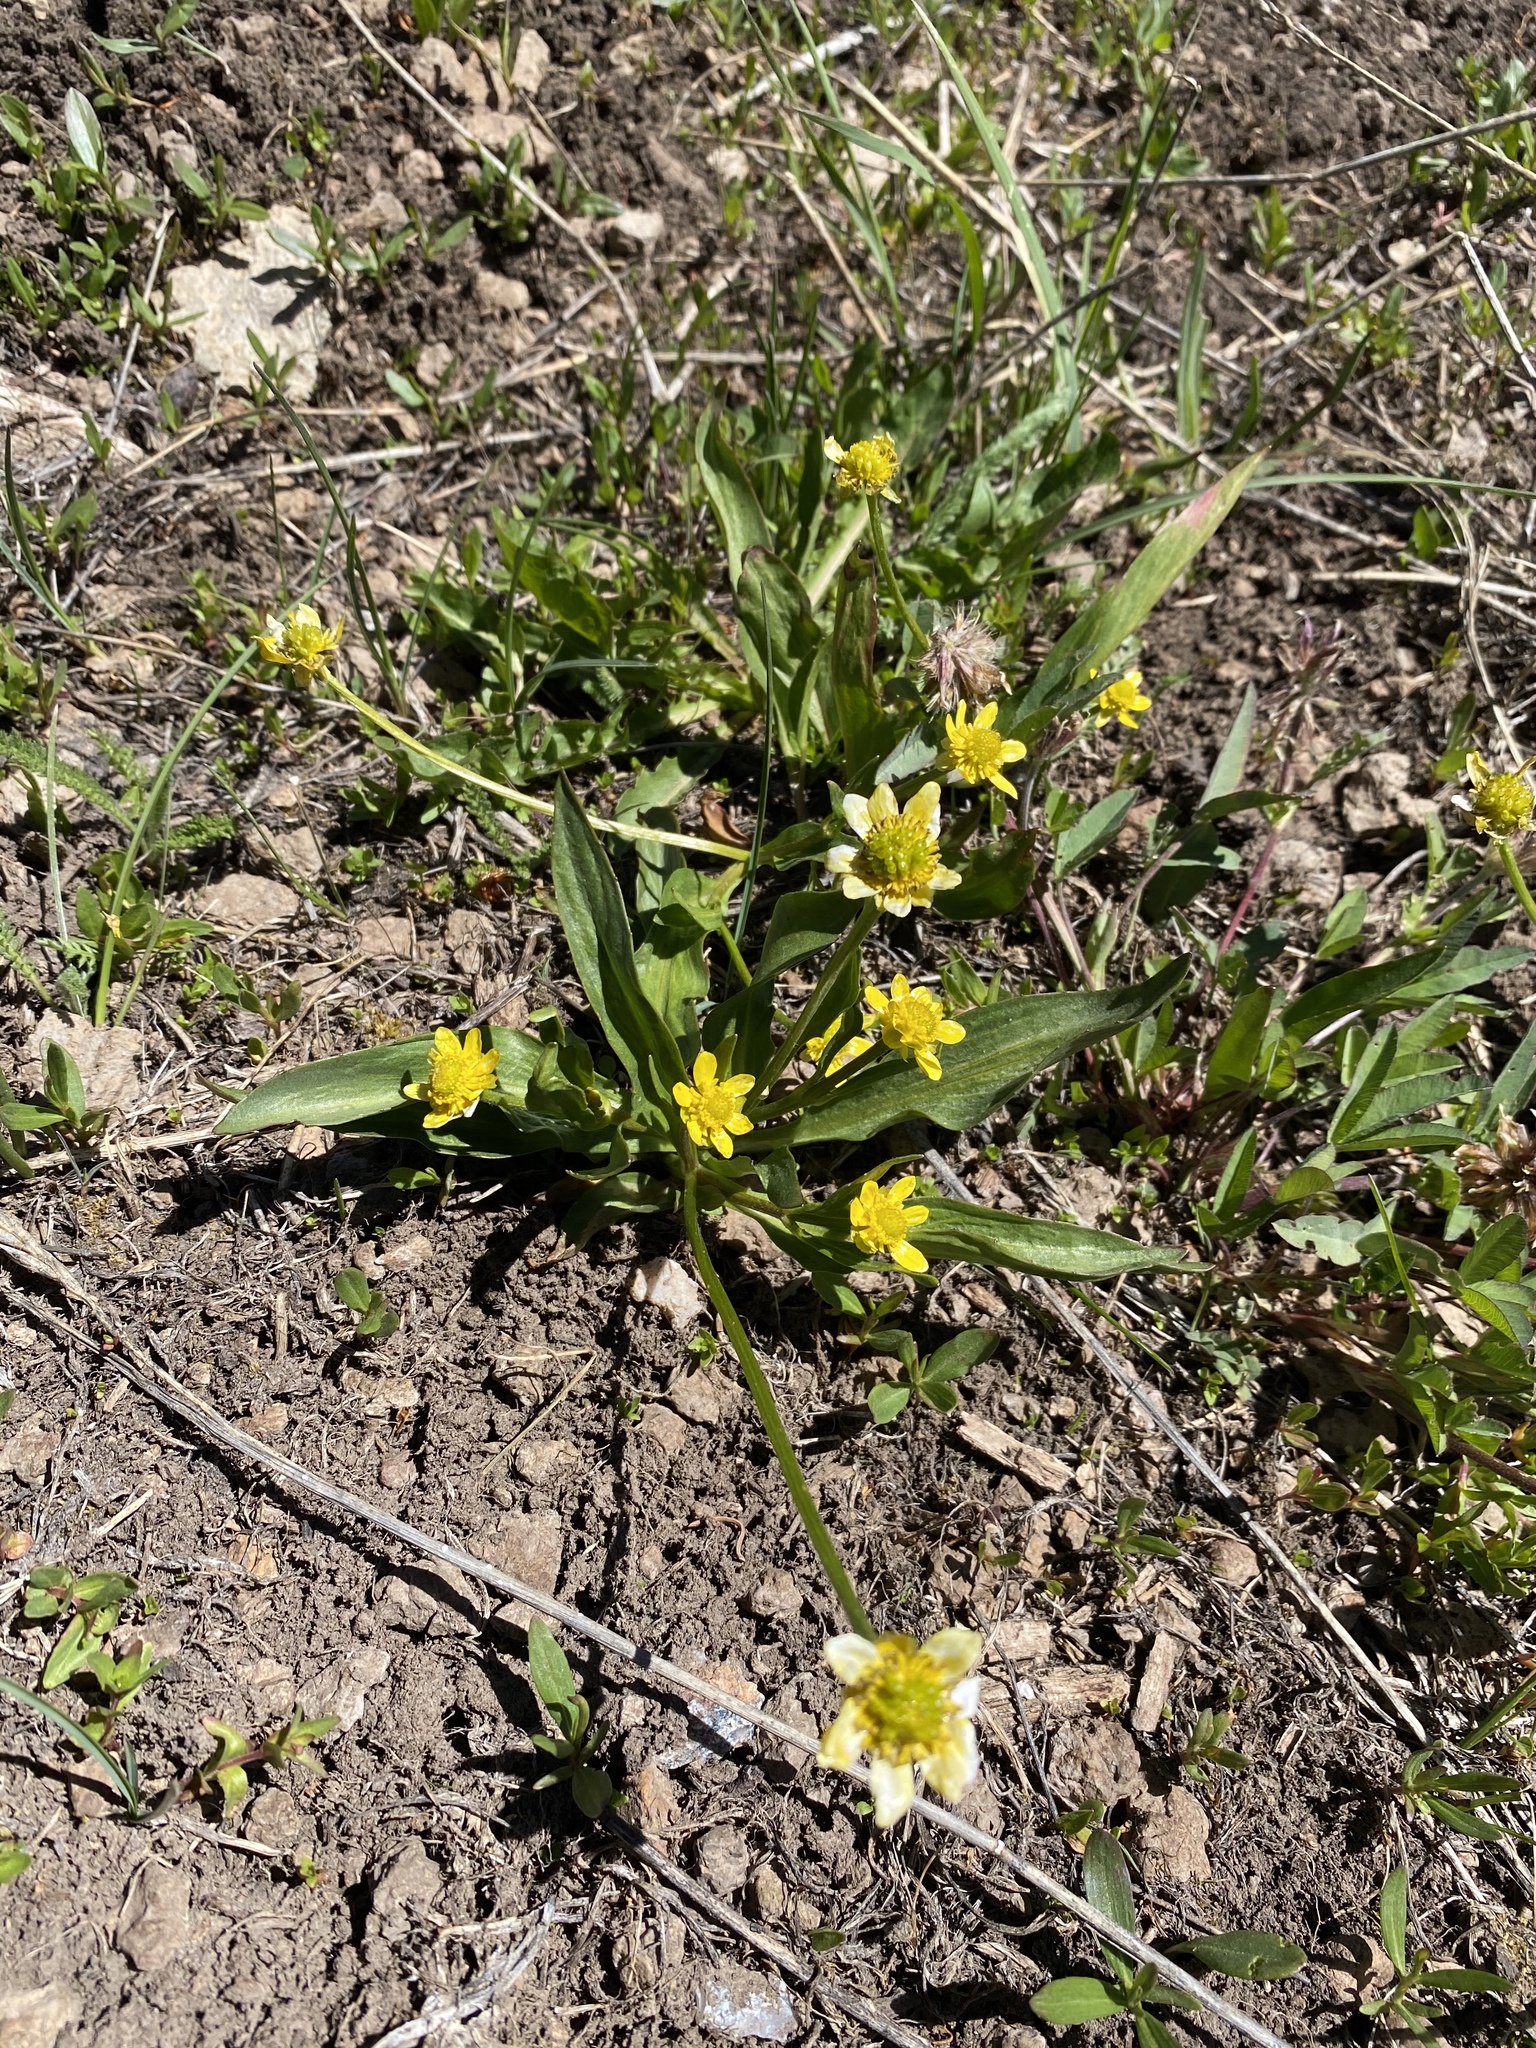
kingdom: Plantae
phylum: Tracheophyta
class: Magnoliopsida
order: Ranunculales
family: Ranunculaceae
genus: Ranunculus
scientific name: Ranunculus alismifolius
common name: Plantain-leaved buttercup
